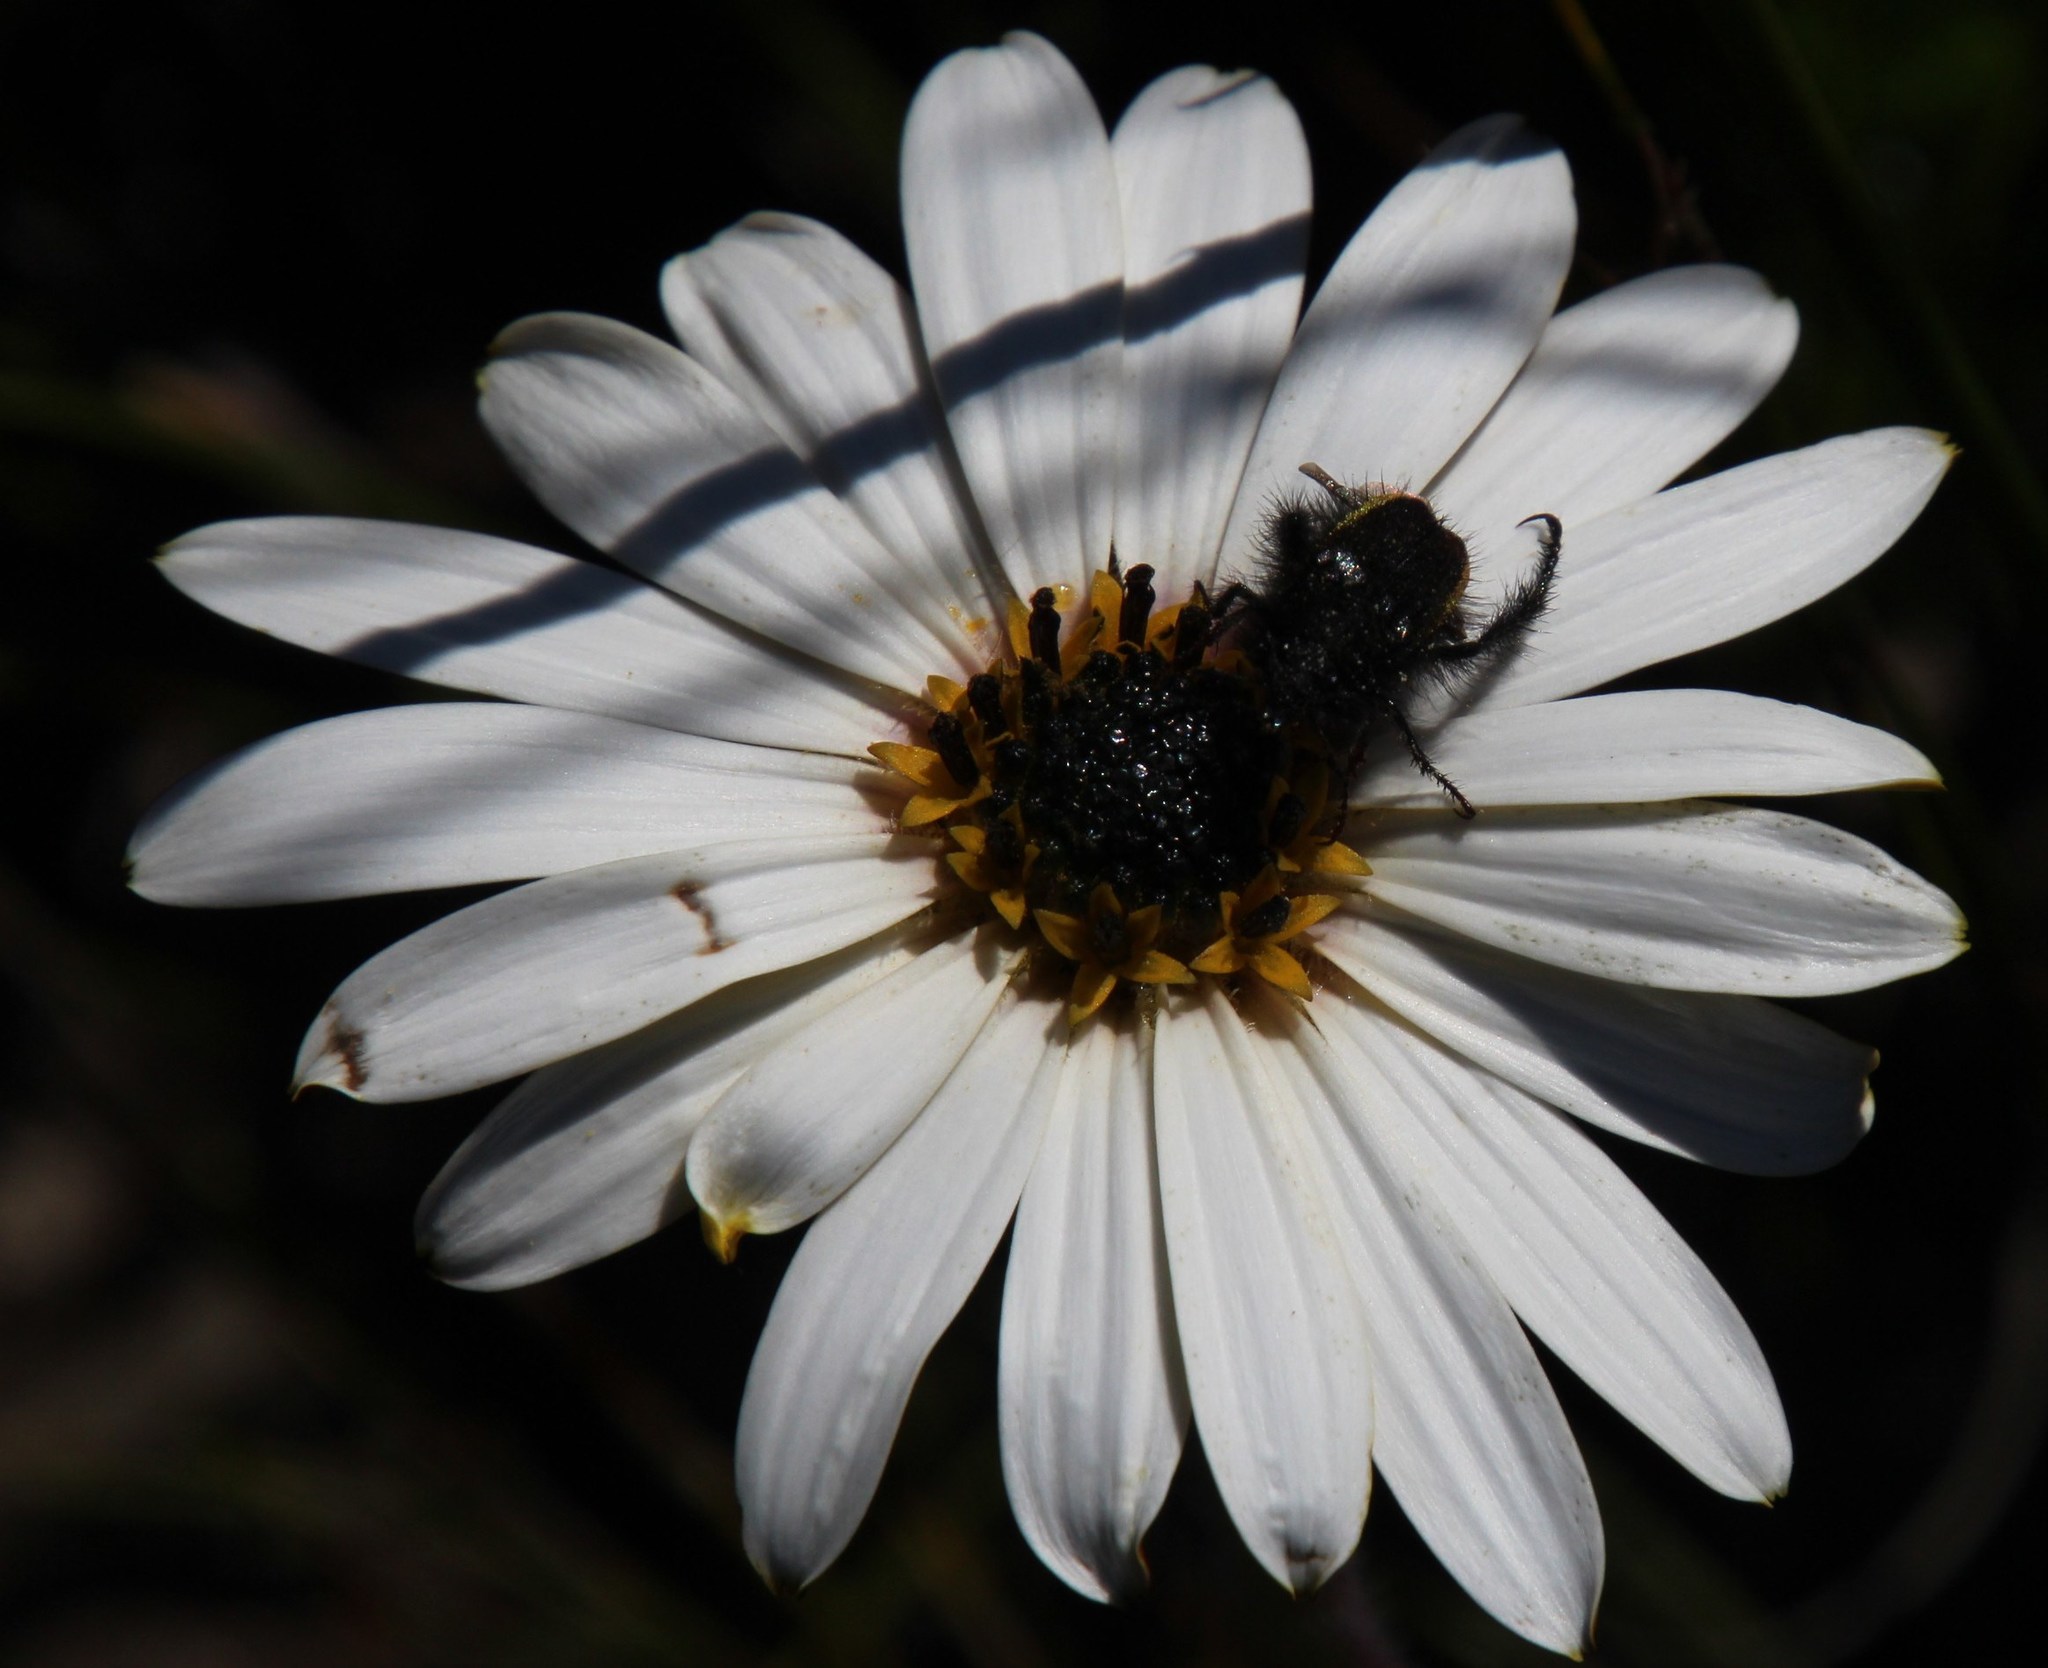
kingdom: Animalia
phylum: Arthropoda
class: Insecta
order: Coleoptera
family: Scarabaeidae
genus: Anisonyx
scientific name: Anisonyx lynx
